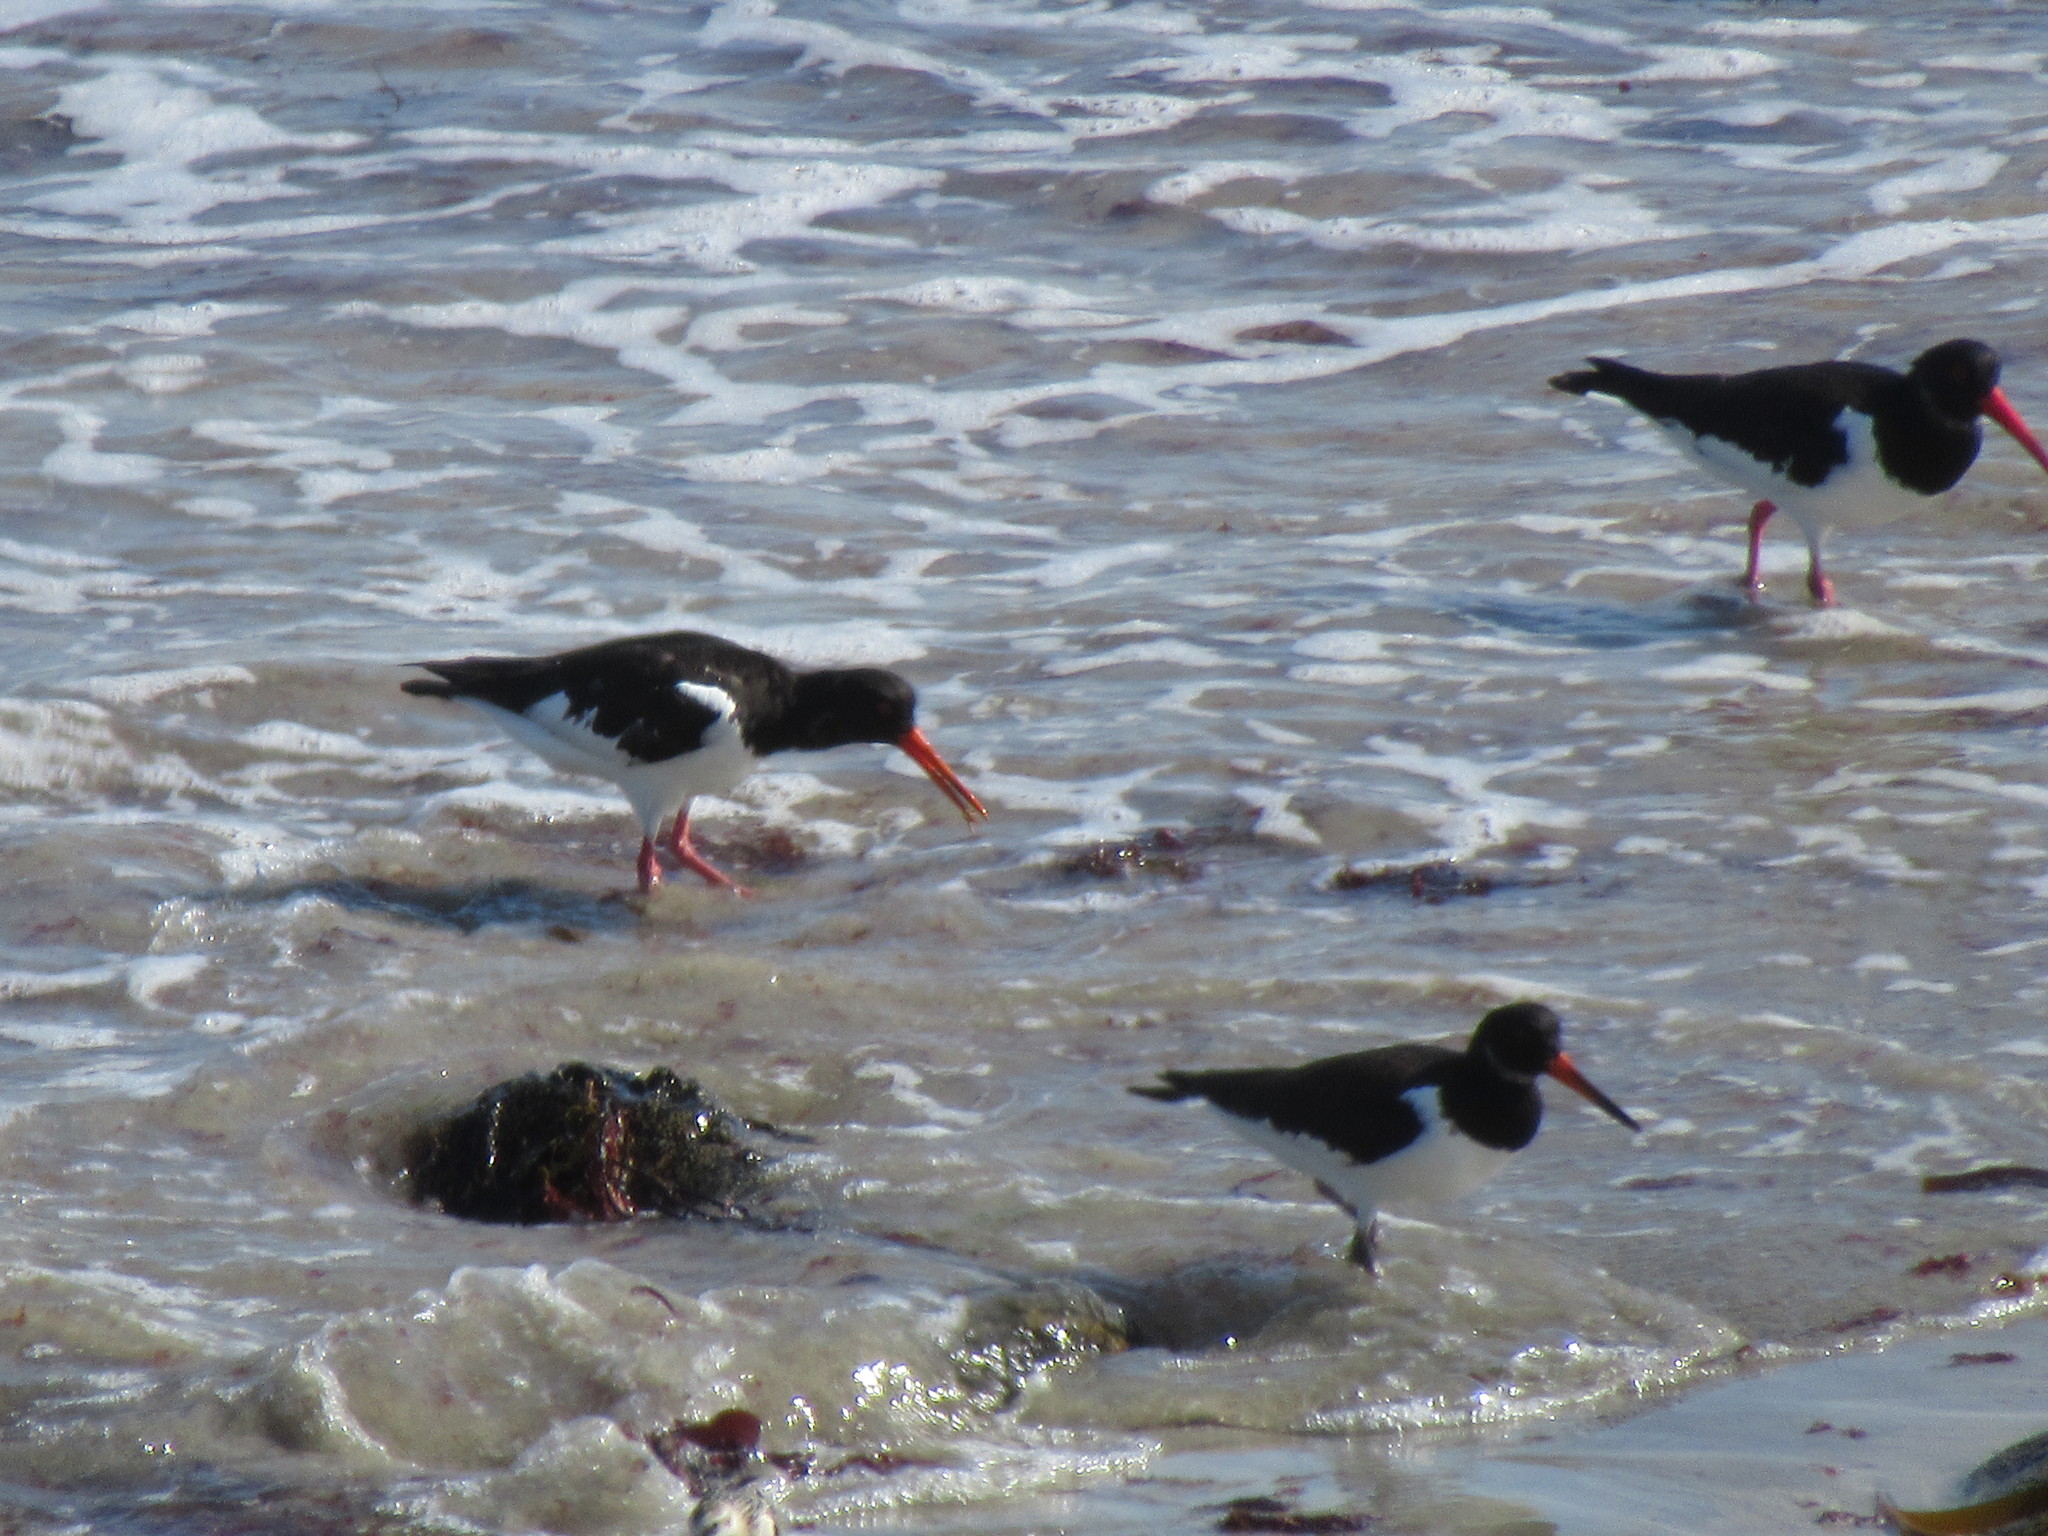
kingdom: Animalia
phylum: Chordata
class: Aves
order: Charadriiformes
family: Haematopodidae
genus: Haematopus
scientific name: Haematopus ostralegus
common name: Eurasian oystercatcher
